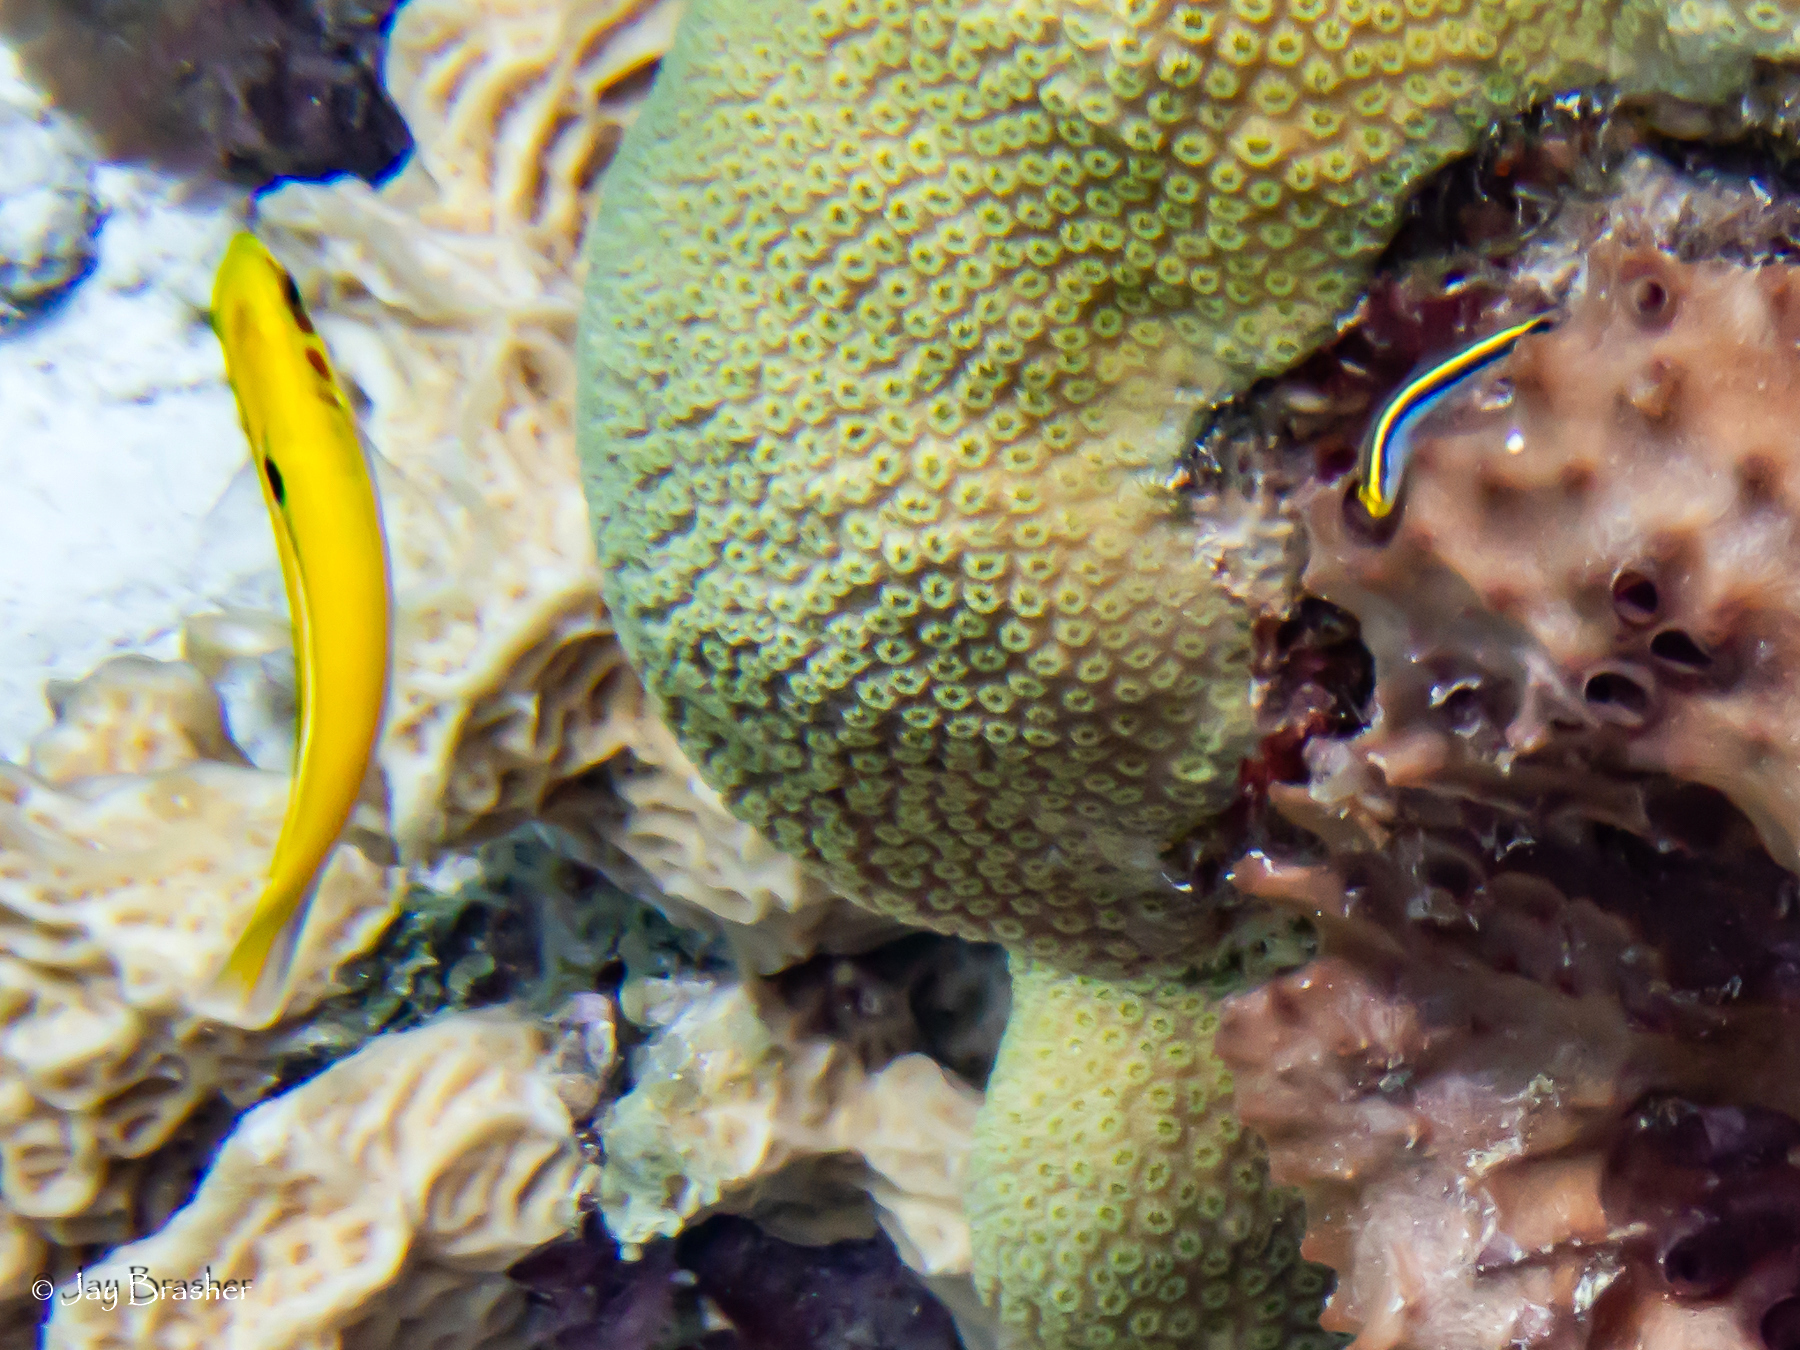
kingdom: Animalia
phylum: Chordata
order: Perciformes
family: Labridae
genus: Thalassoma
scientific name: Thalassoma bifasciatum
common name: Bluehead wrasse
